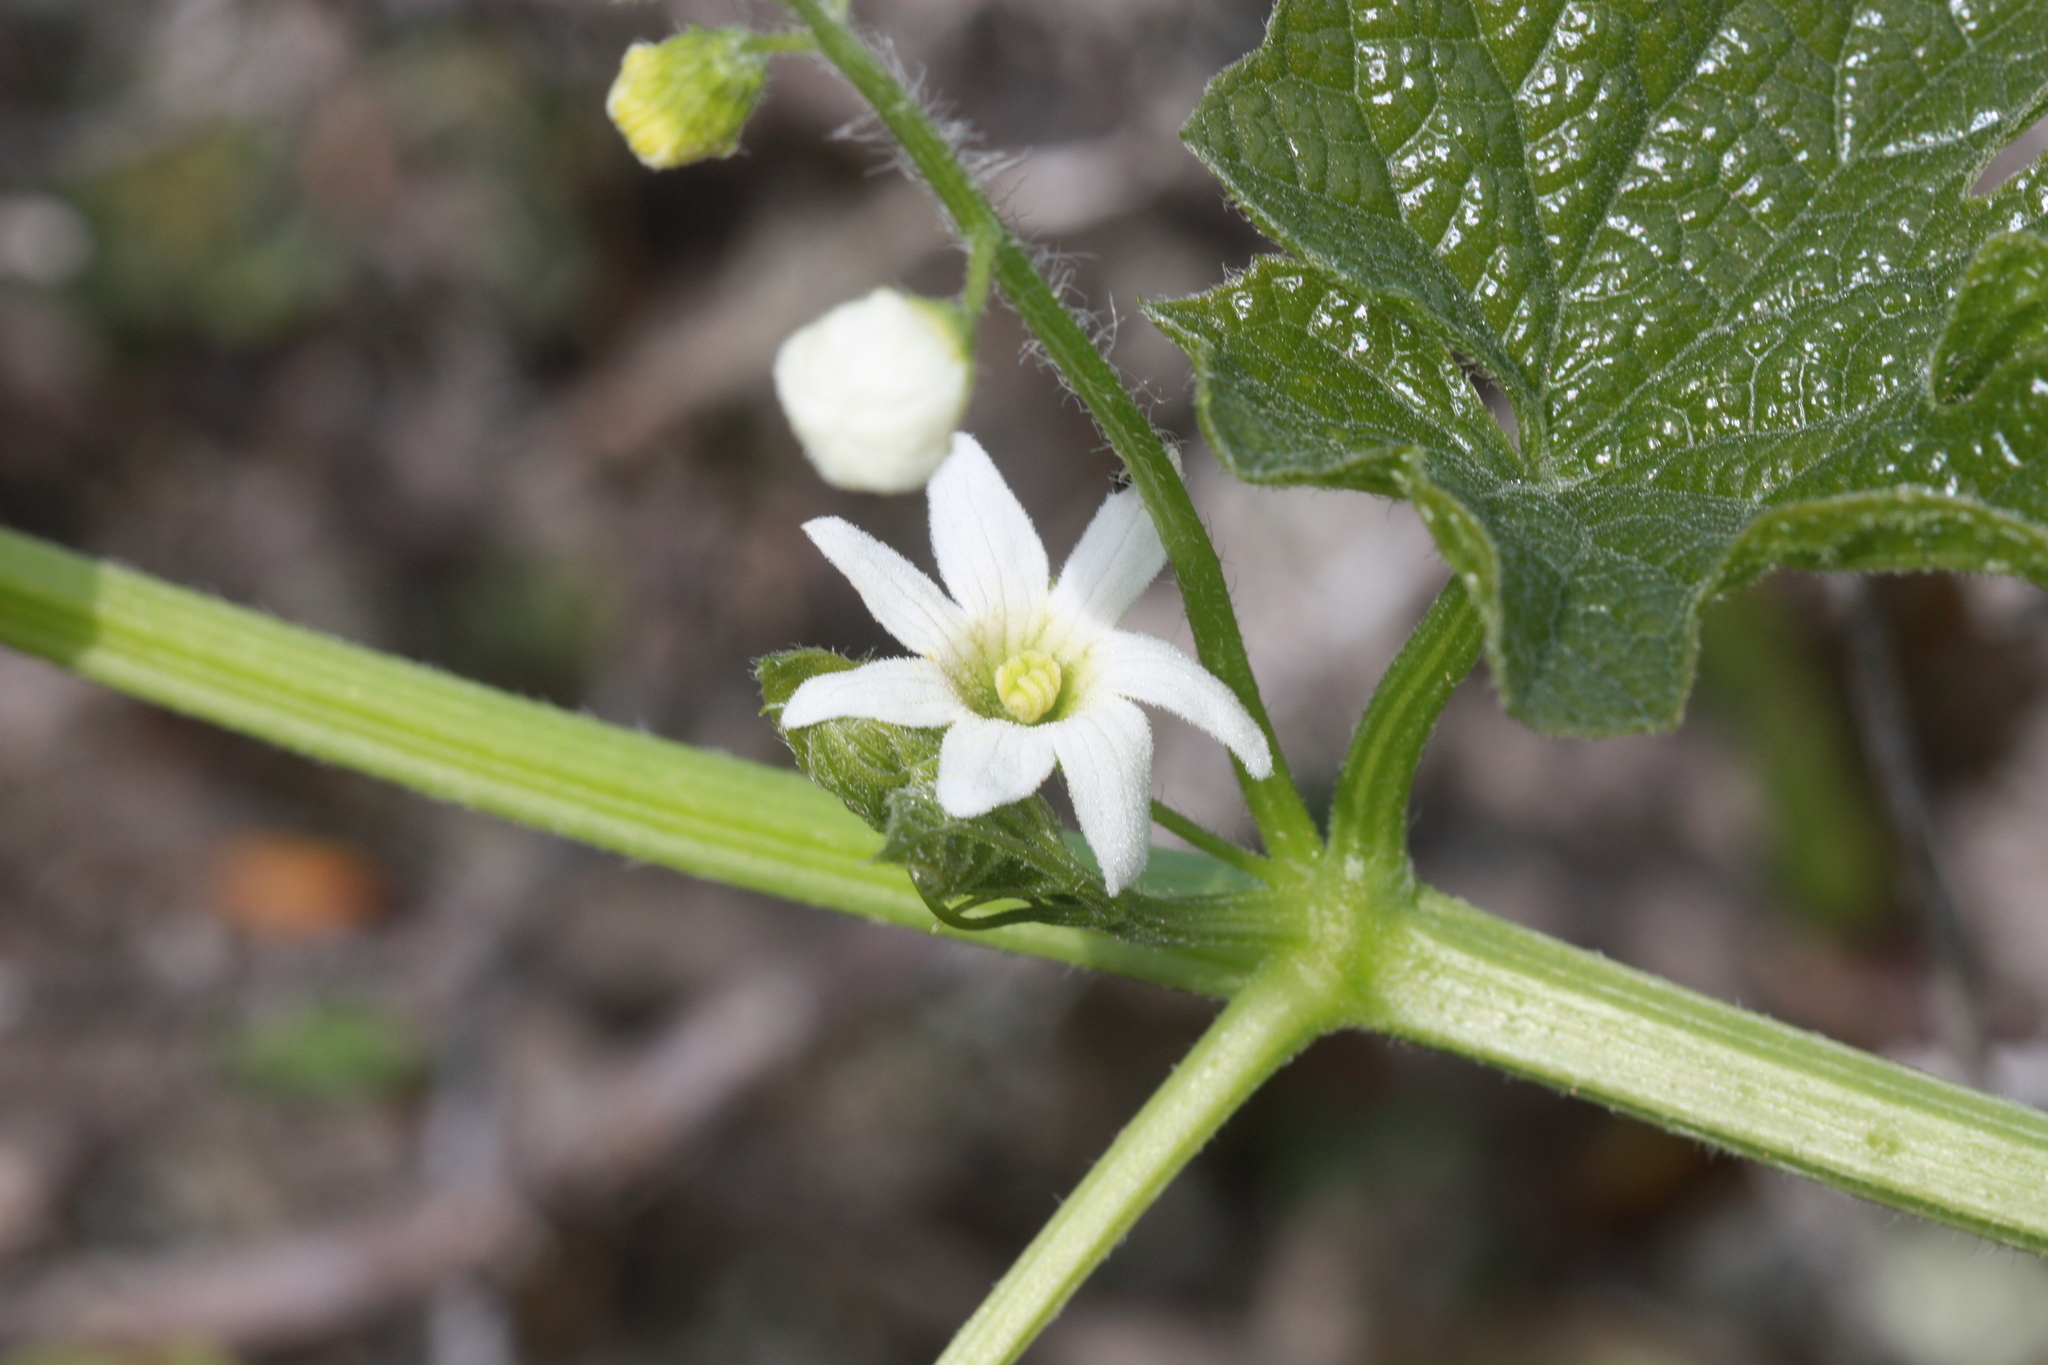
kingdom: Plantae
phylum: Tracheophyta
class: Magnoliopsida
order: Cucurbitales
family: Cucurbitaceae
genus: Marah
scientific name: Marah oregana
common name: Coastal manroot
